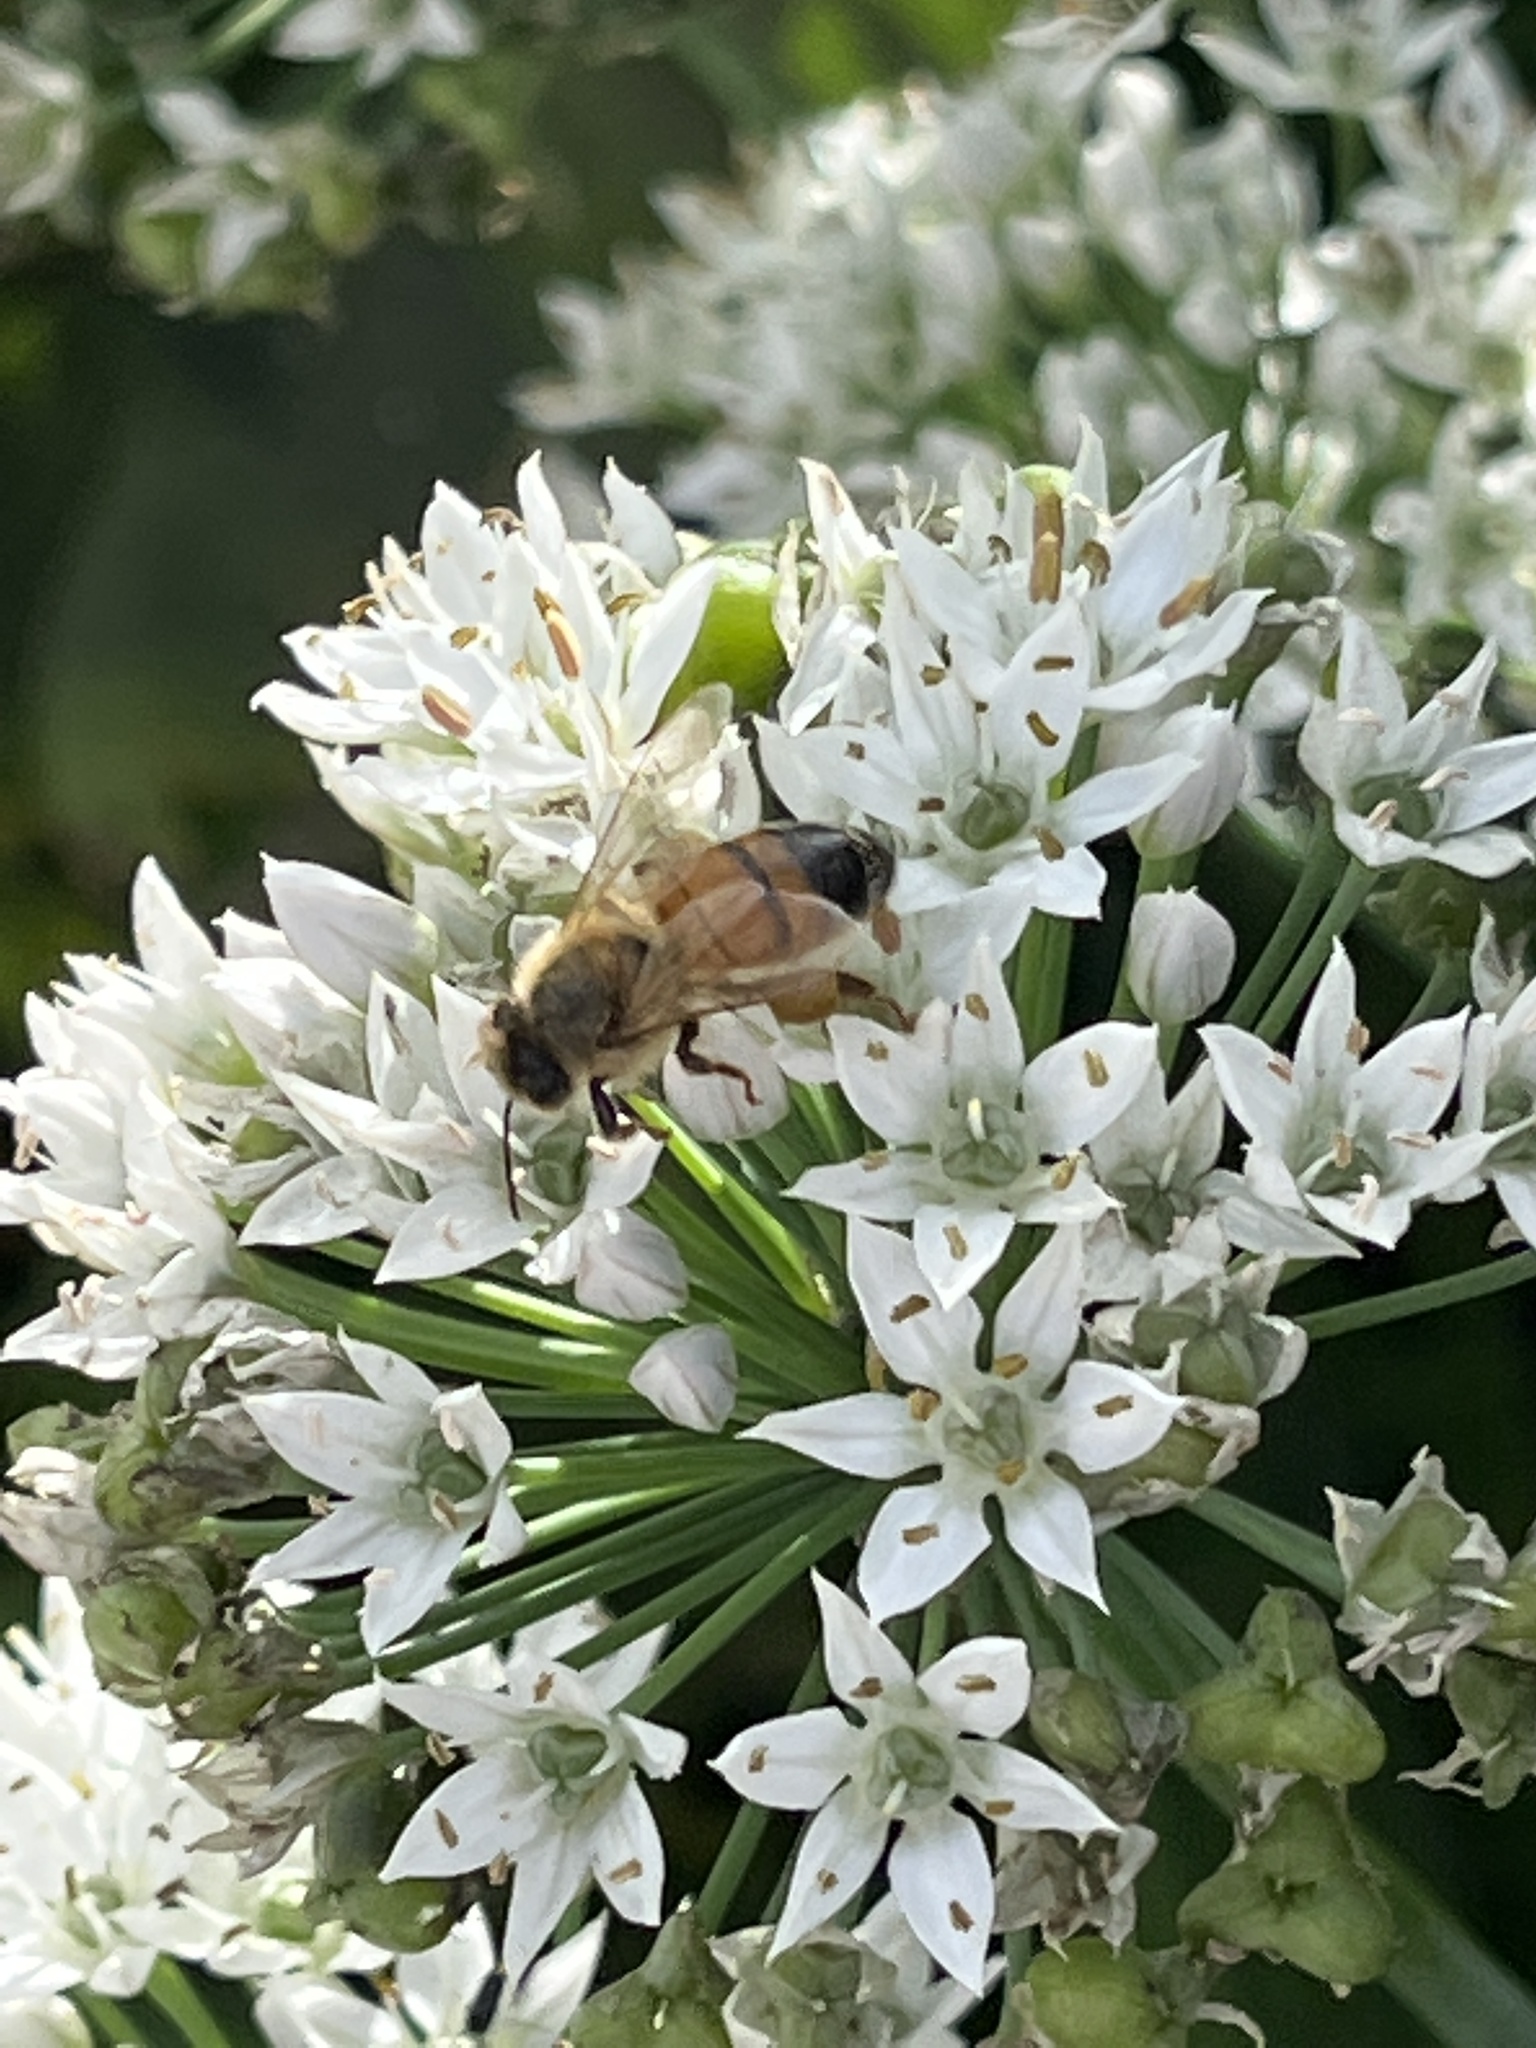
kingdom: Animalia
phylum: Arthropoda
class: Insecta
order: Hymenoptera
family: Apidae
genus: Apis
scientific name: Apis mellifera
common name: Honey bee
